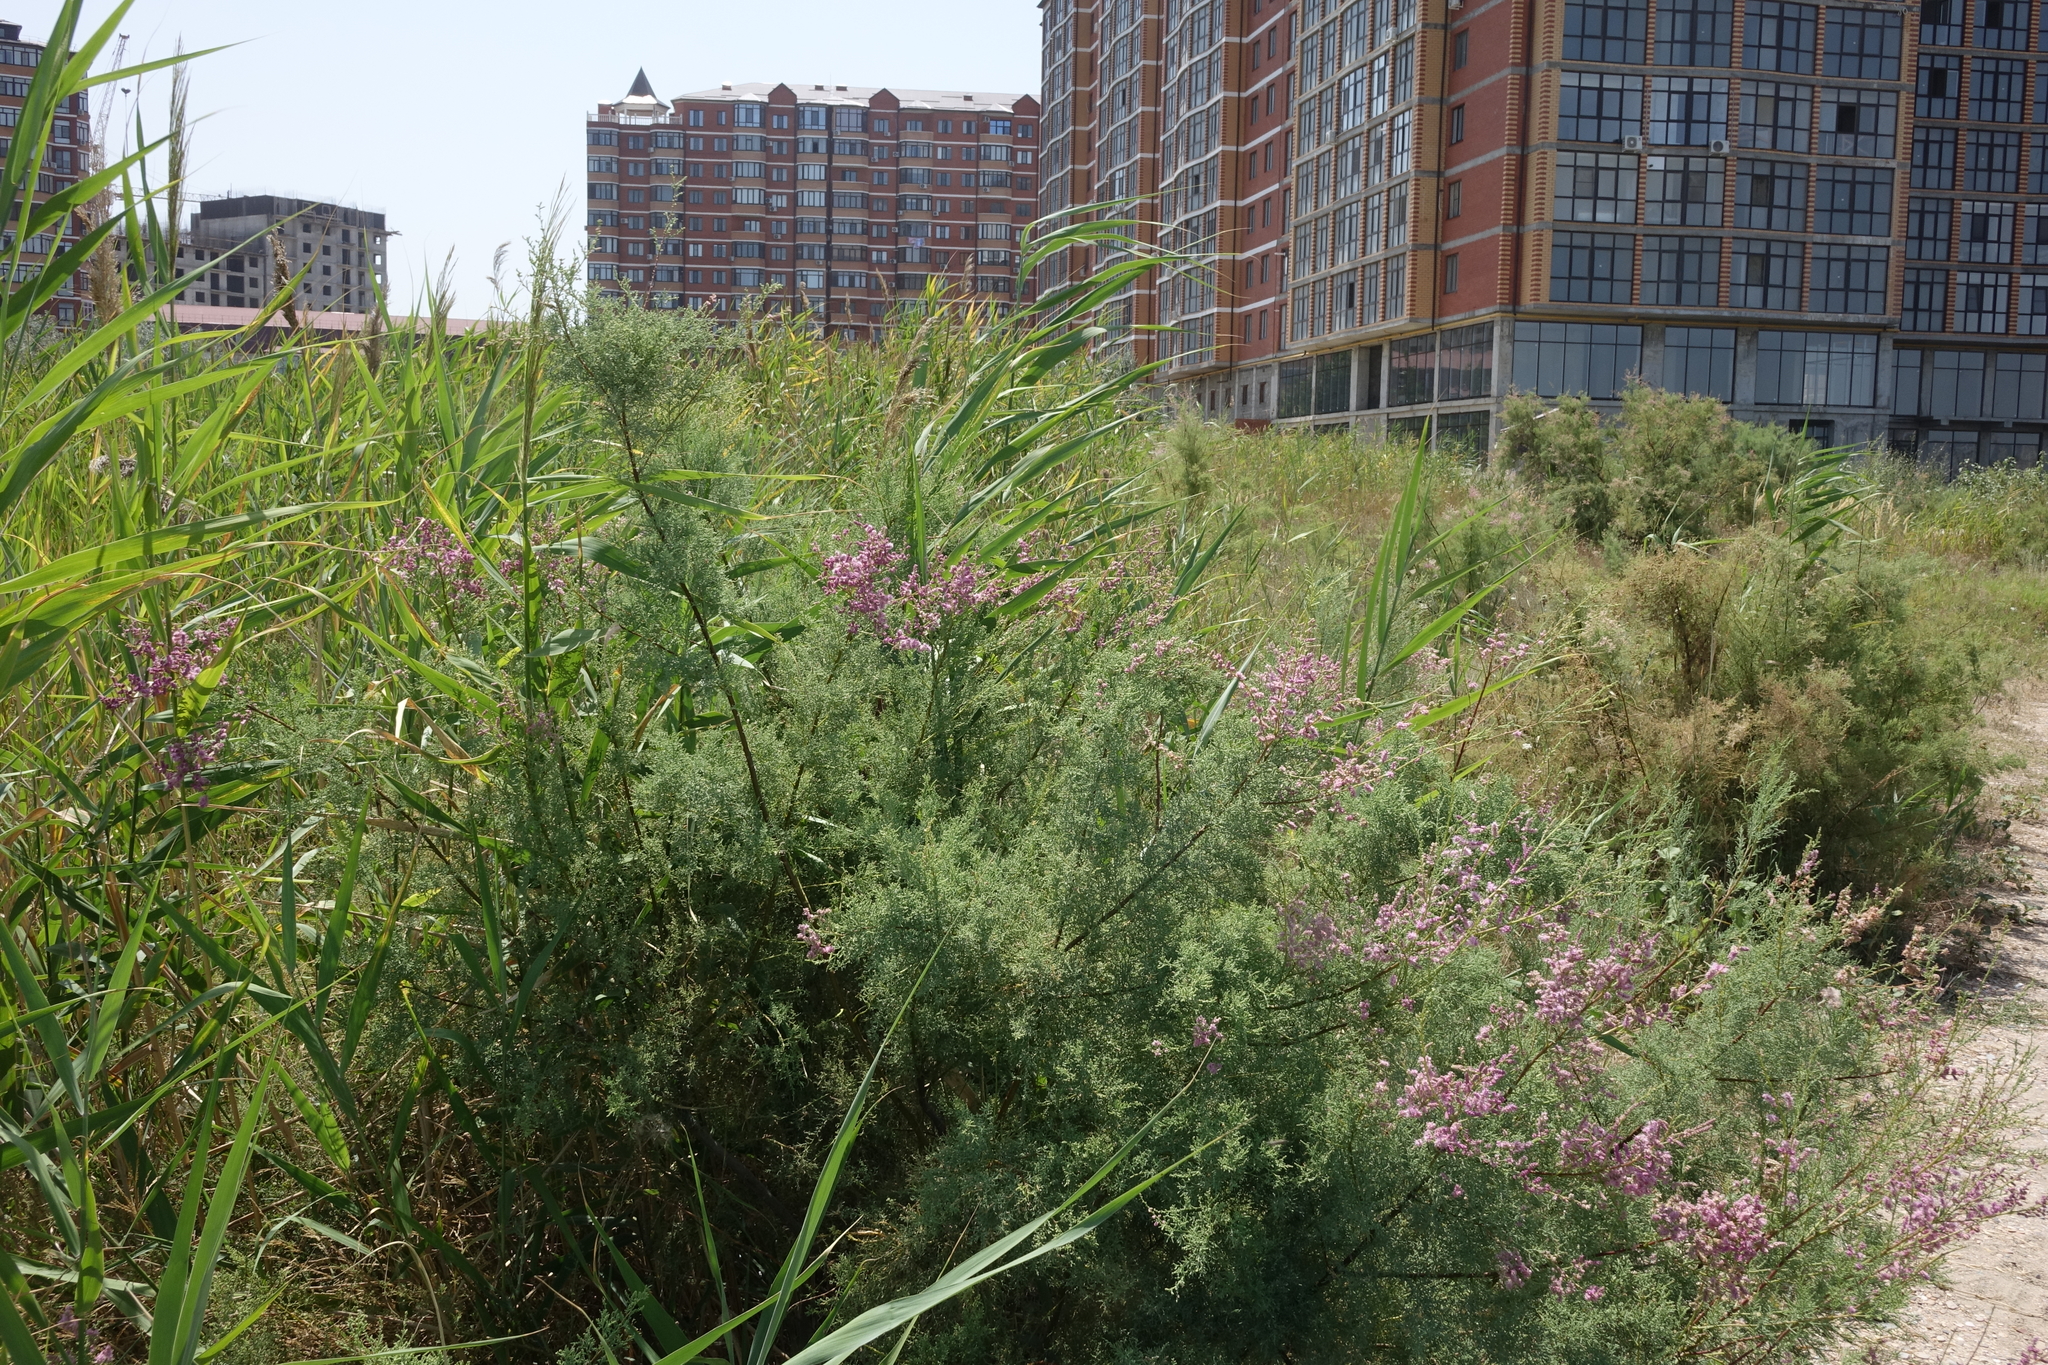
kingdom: Plantae
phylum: Tracheophyta
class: Magnoliopsida
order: Caryophyllales
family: Tamaricaceae
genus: Tamarix
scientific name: Tamarix ramosissima
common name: Pink tamarisk
